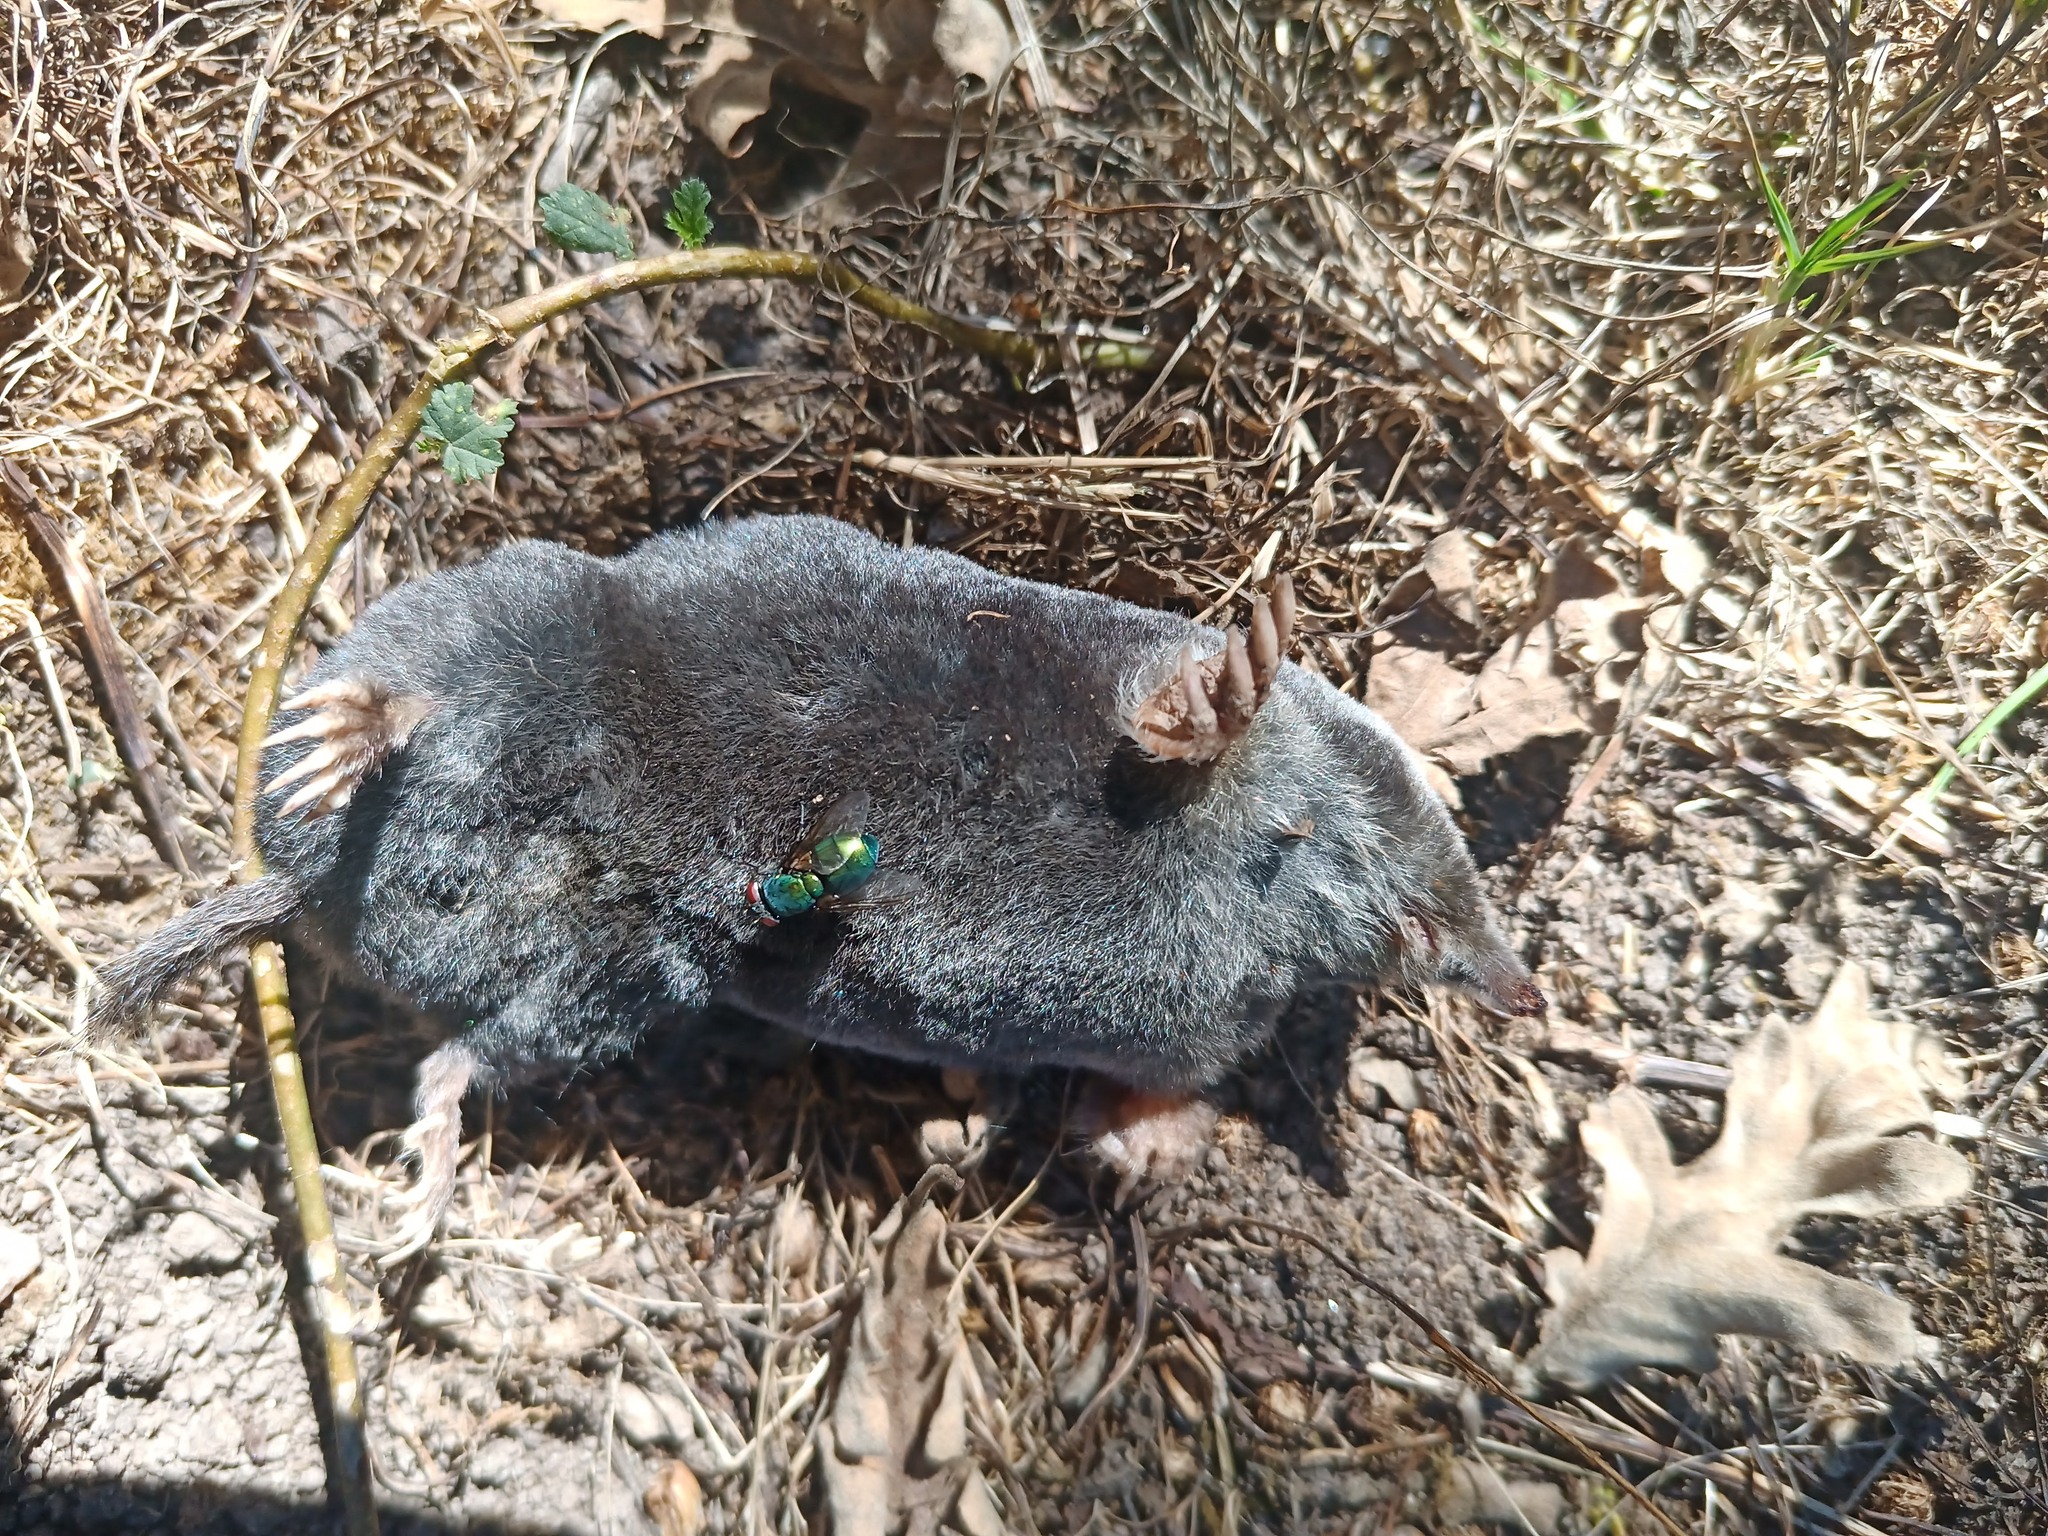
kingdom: Animalia
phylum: Chordata
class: Mammalia
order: Soricomorpha
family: Talpidae
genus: Talpa
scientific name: Talpa occidentalis
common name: Iberian mole
